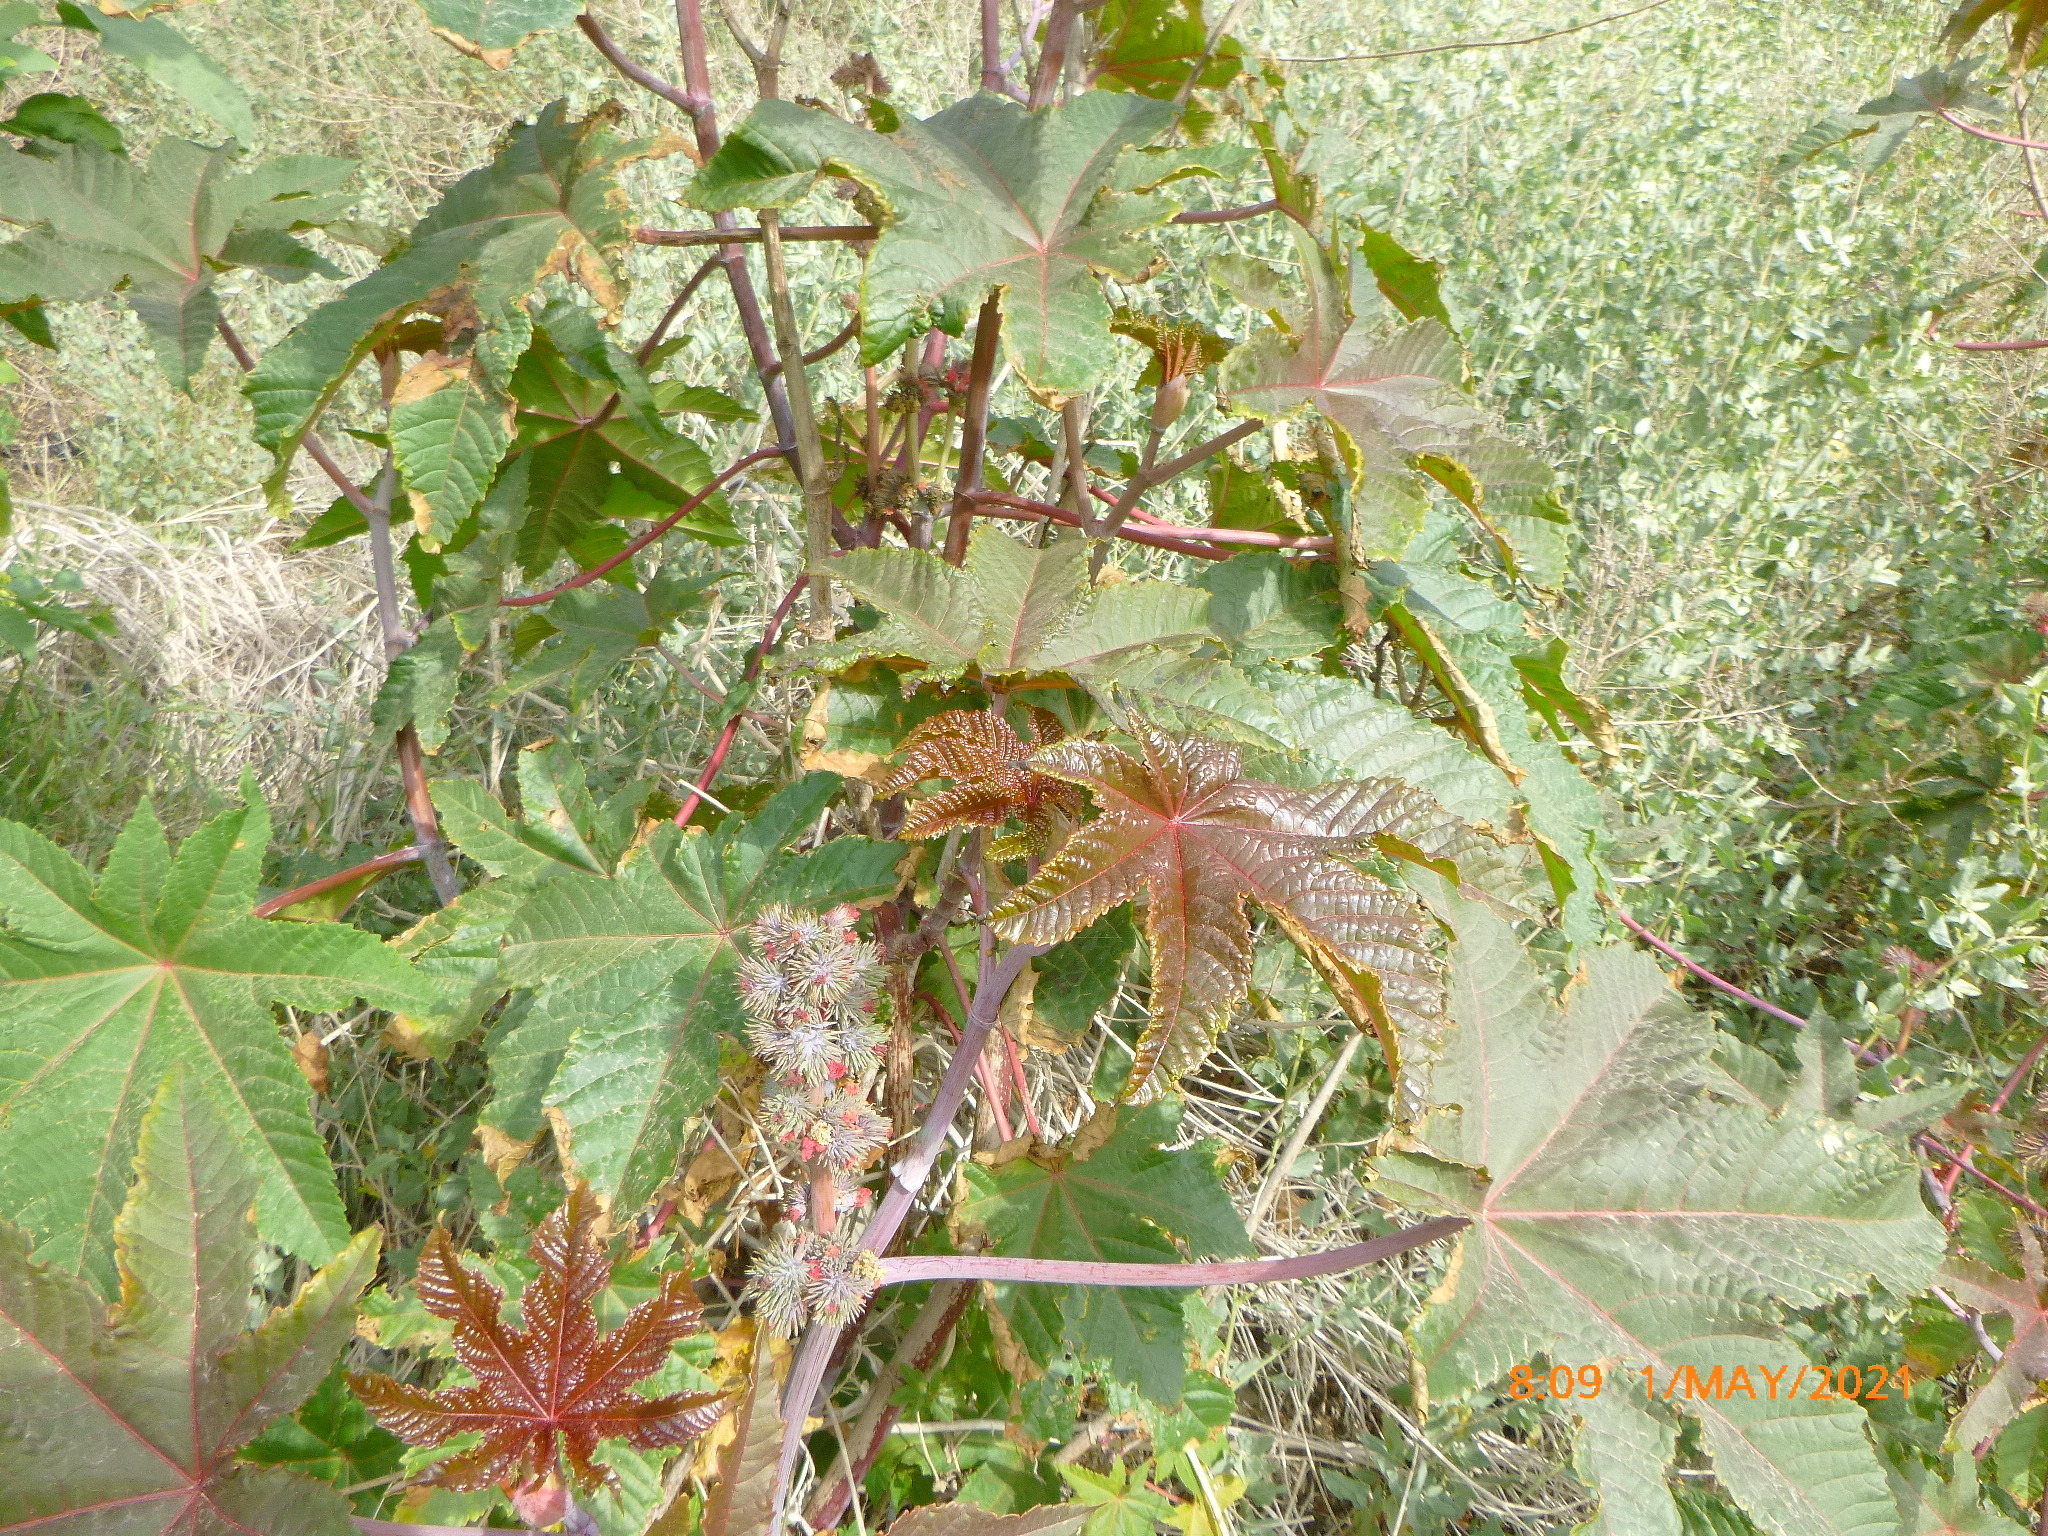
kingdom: Plantae
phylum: Tracheophyta
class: Magnoliopsida
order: Malpighiales
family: Euphorbiaceae
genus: Ricinus
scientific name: Ricinus communis
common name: Castor-oil-plant
